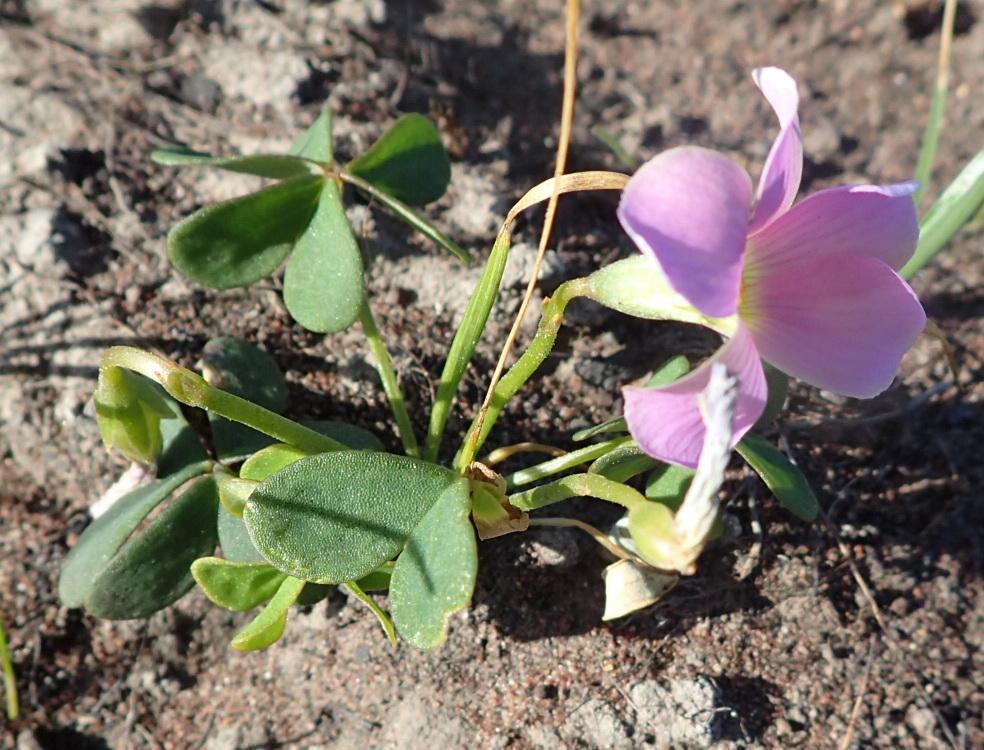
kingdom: Plantae
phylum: Tracheophyta
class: Magnoliopsida
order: Oxalidales
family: Oxalidaceae
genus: Oxalis
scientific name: Oxalis smithiana
